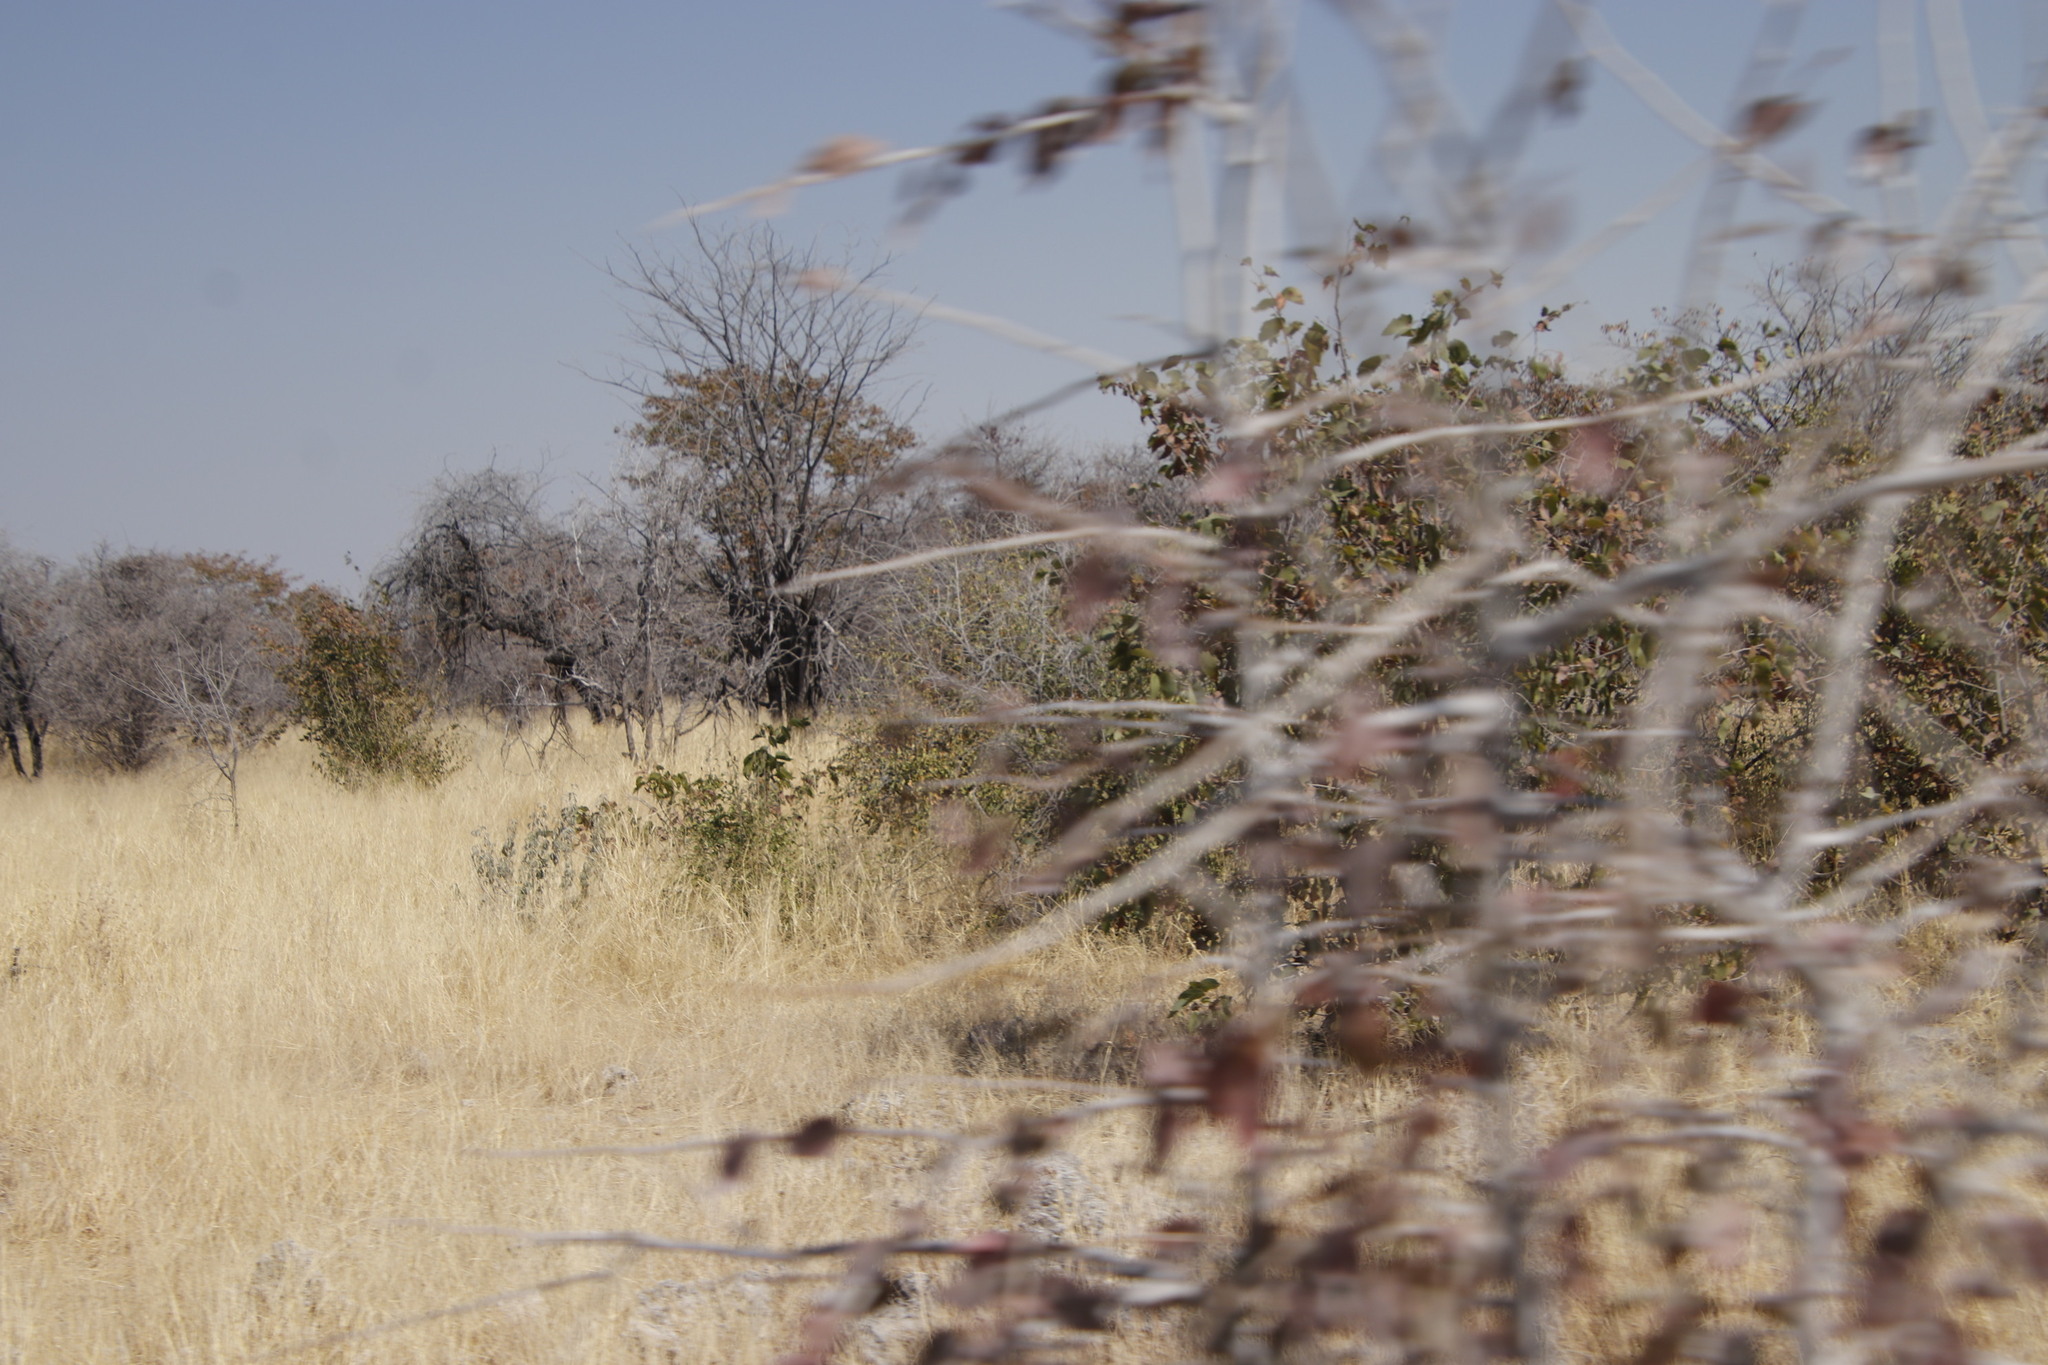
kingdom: Plantae
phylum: Tracheophyta
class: Magnoliopsida
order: Fabales
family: Fabaceae
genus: Colophospermum
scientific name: Colophospermum mopane
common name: Mopane
